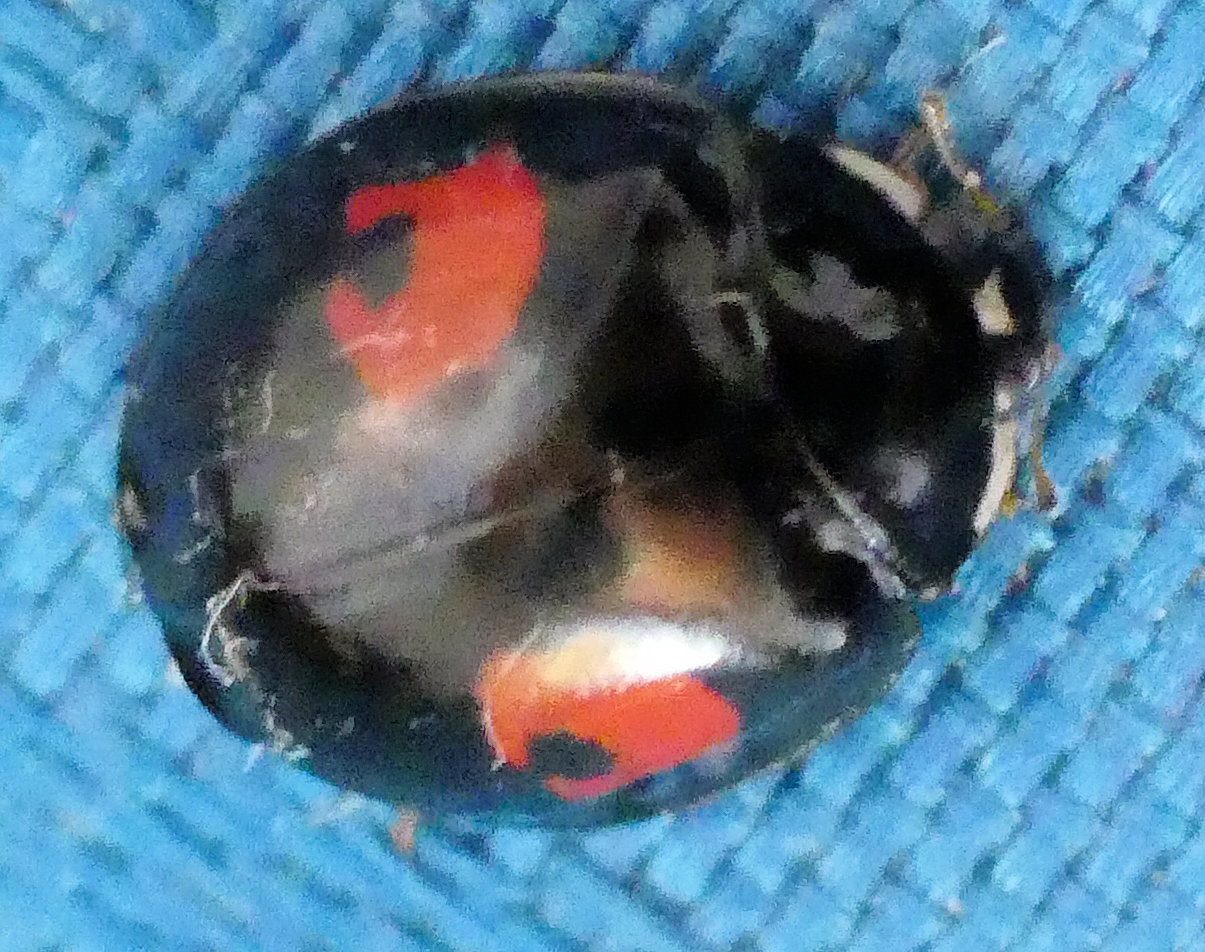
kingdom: Animalia
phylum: Arthropoda
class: Insecta
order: Coleoptera
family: Coccinellidae
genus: Harmonia
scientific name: Harmonia axyridis
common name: Harlequin ladybird
